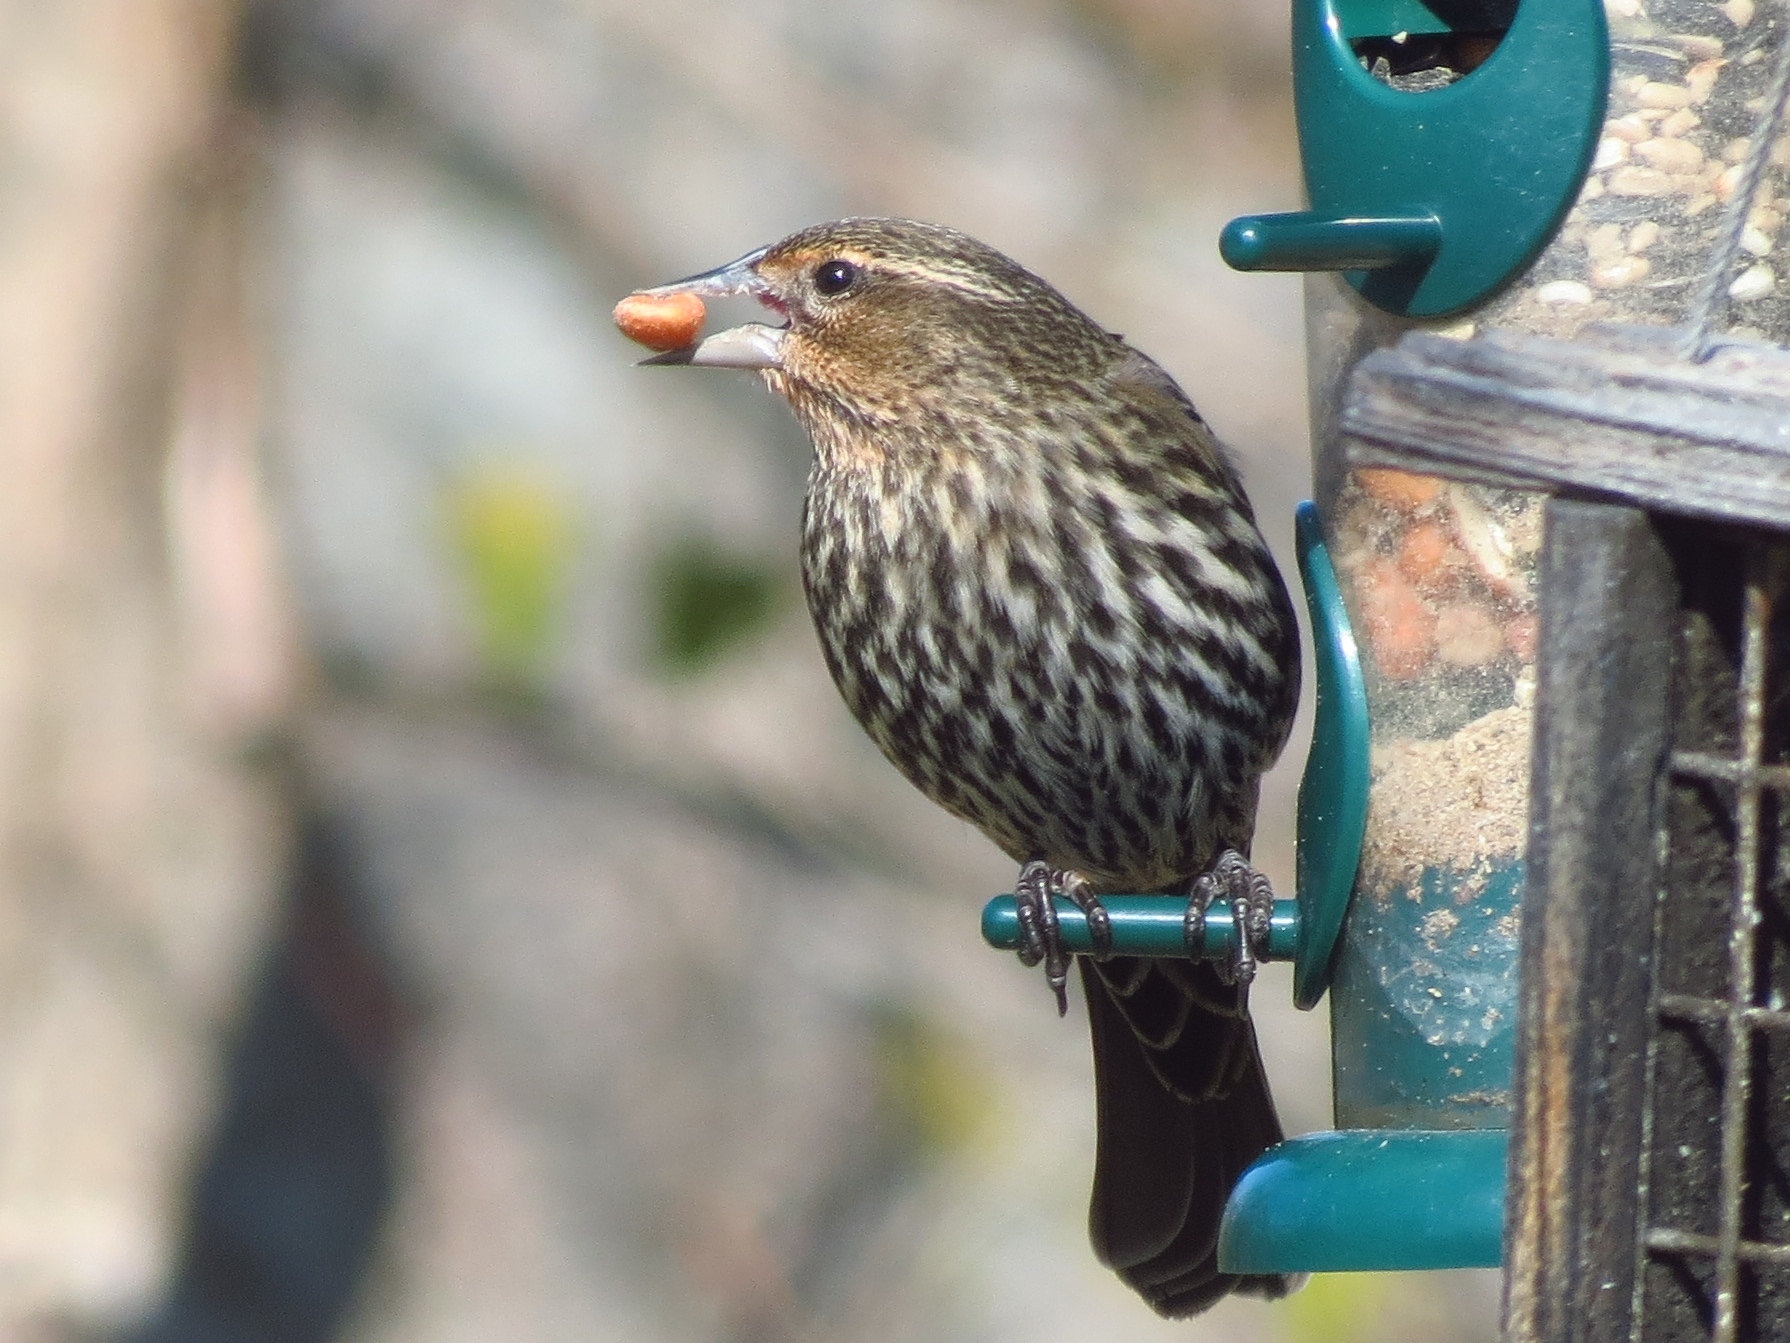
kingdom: Animalia
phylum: Chordata
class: Aves
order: Passeriformes
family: Icteridae
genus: Agelaius
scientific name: Agelaius phoeniceus
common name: Red-winged blackbird
